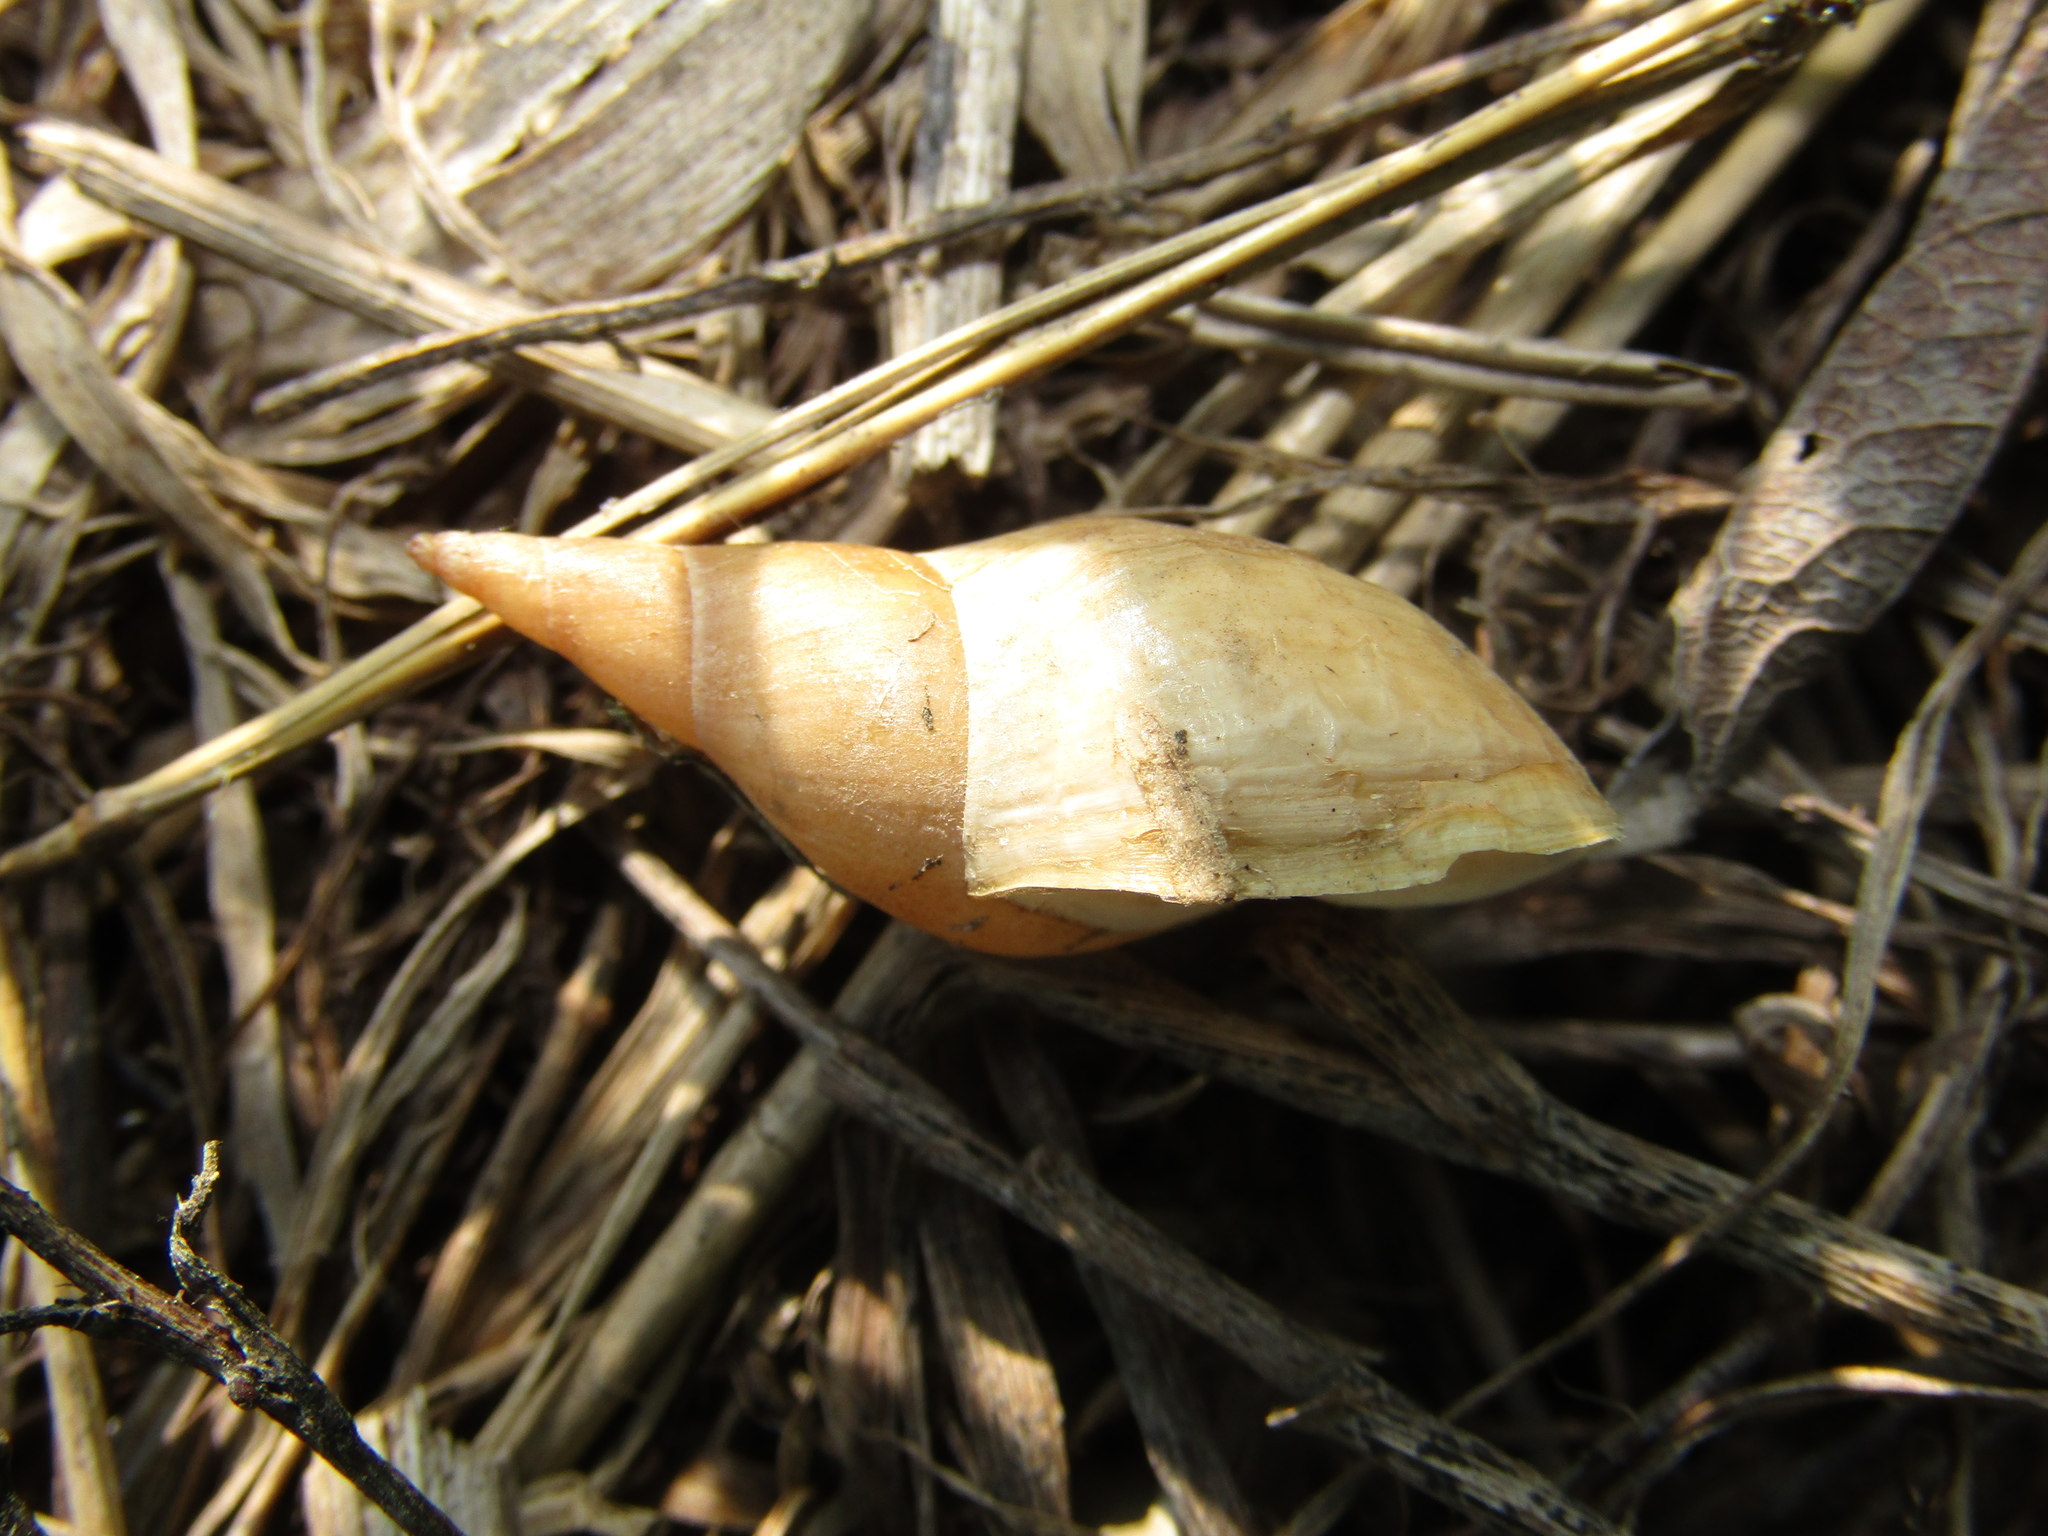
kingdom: Animalia
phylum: Mollusca
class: Gastropoda
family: Lymnaeidae
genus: Lymnaea
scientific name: Lymnaea stagnalis
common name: Great pond snail
